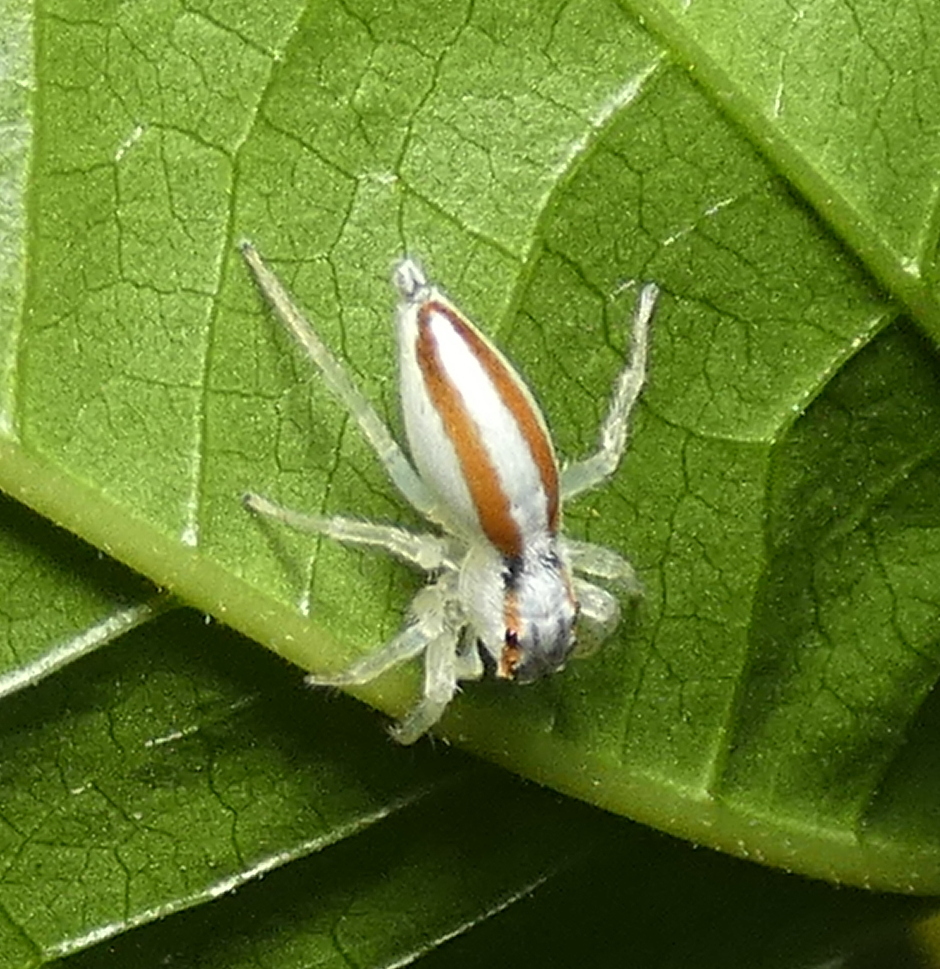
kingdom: Animalia
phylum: Arthropoda
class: Arachnida
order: Araneae
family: Salticidae
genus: Chira
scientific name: Chira trivittata
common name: Jumping spiders
